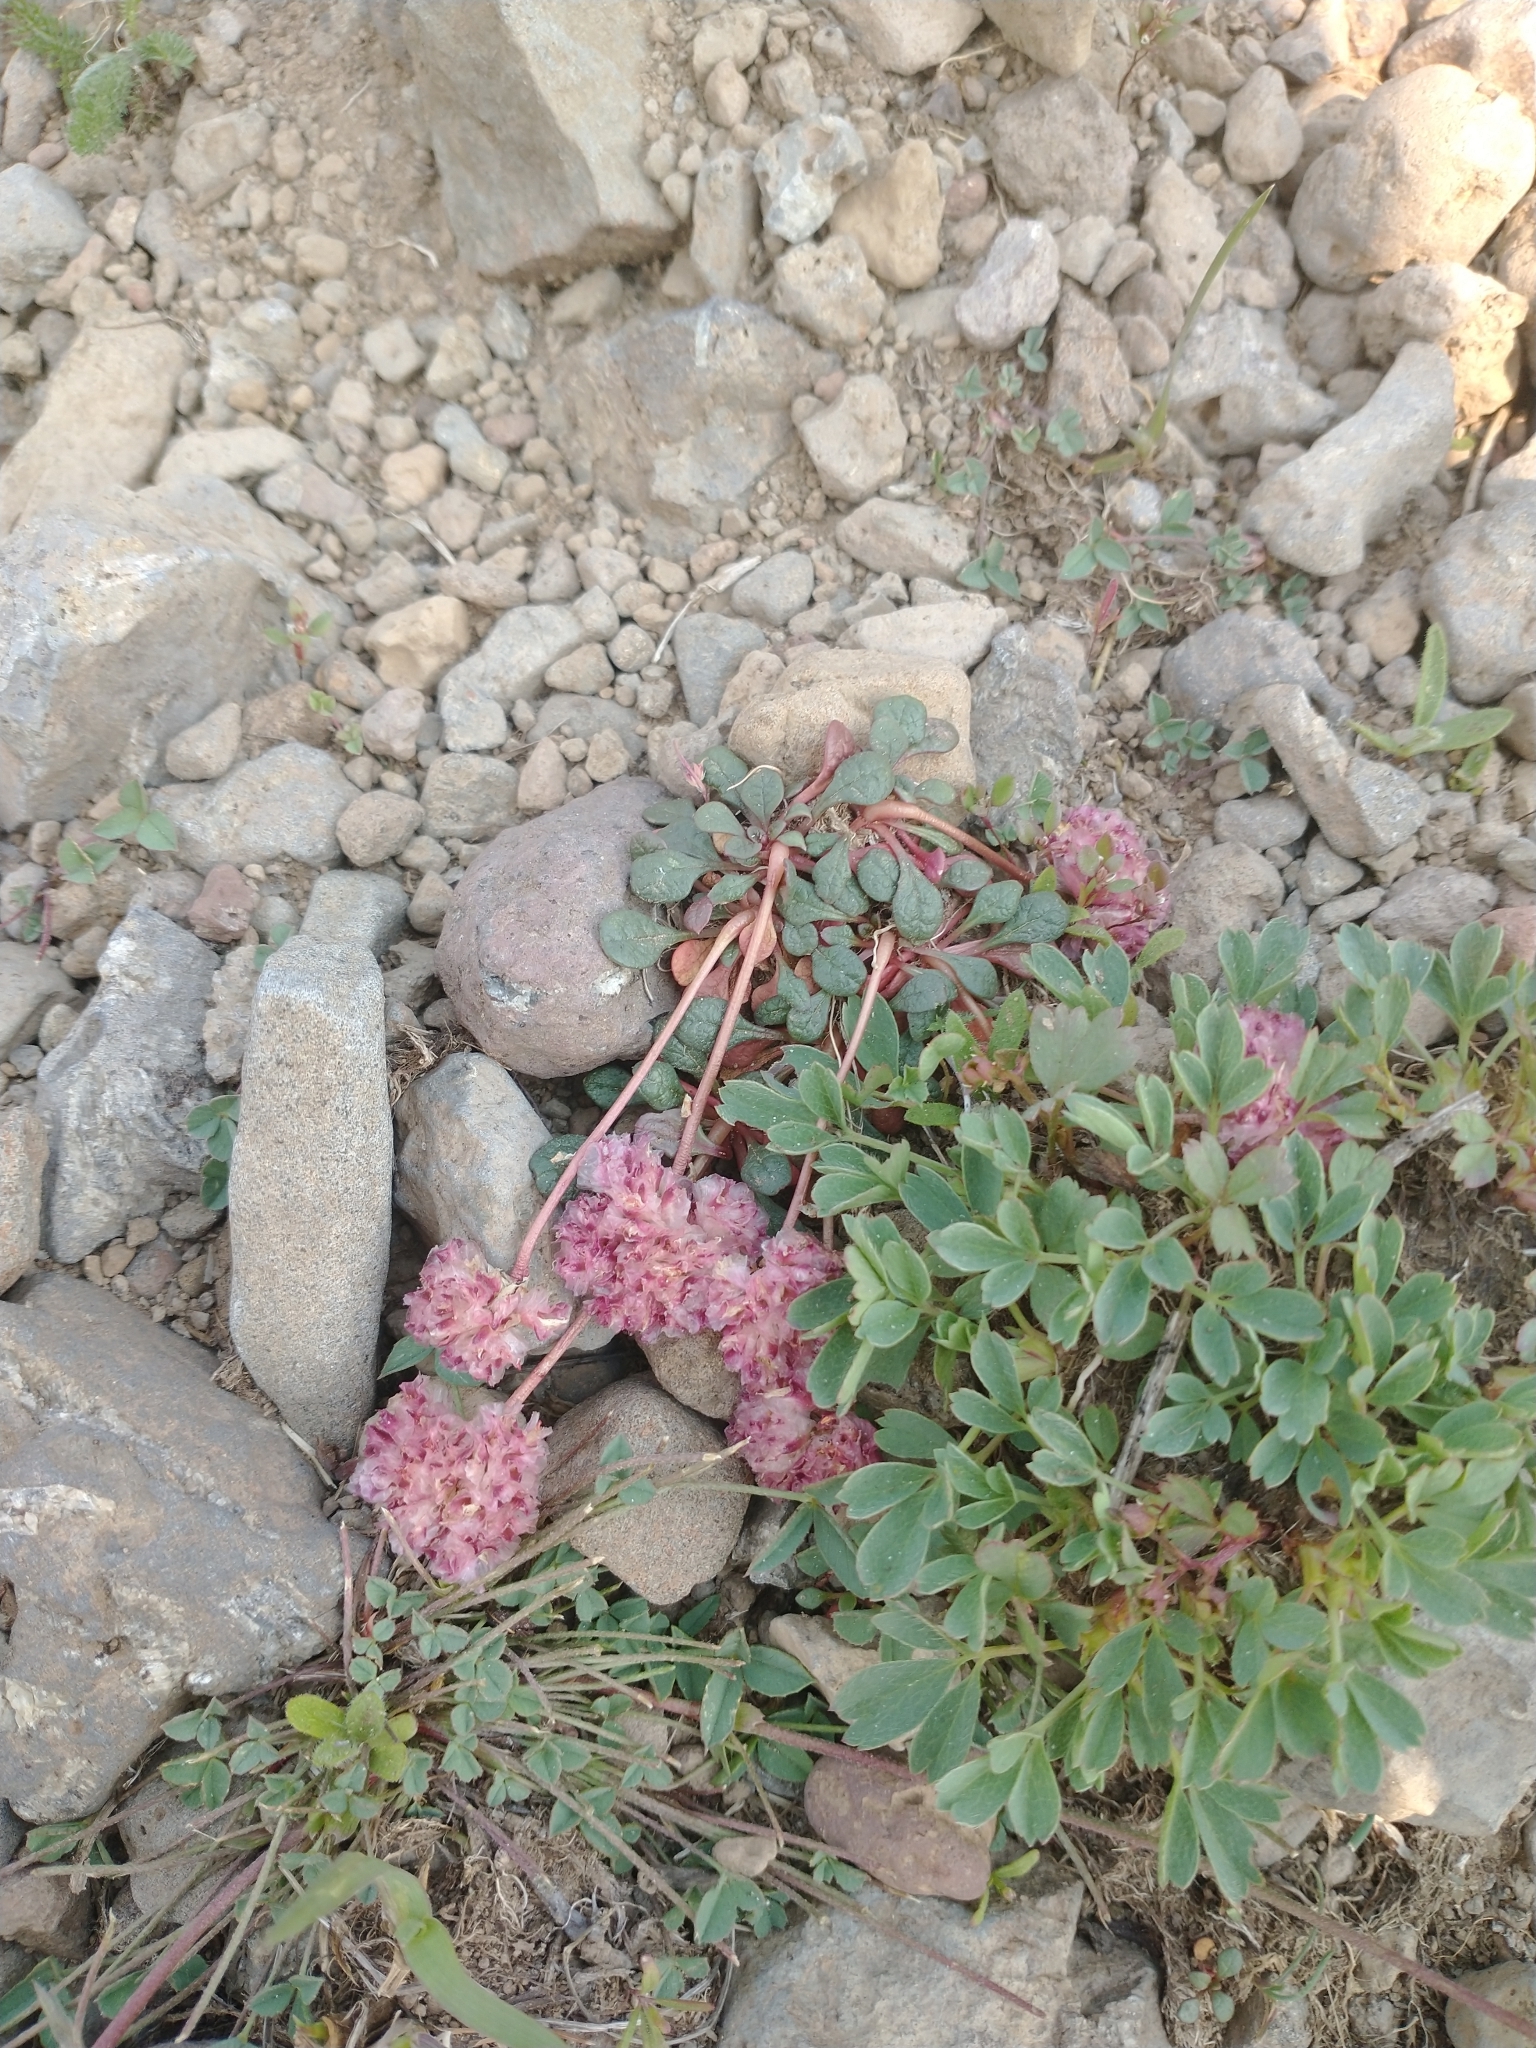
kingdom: Plantae
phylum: Tracheophyta
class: Magnoliopsida
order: Caryophyllales
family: Montiaceae
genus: Calyptridium
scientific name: Calyptridium umbellatum
